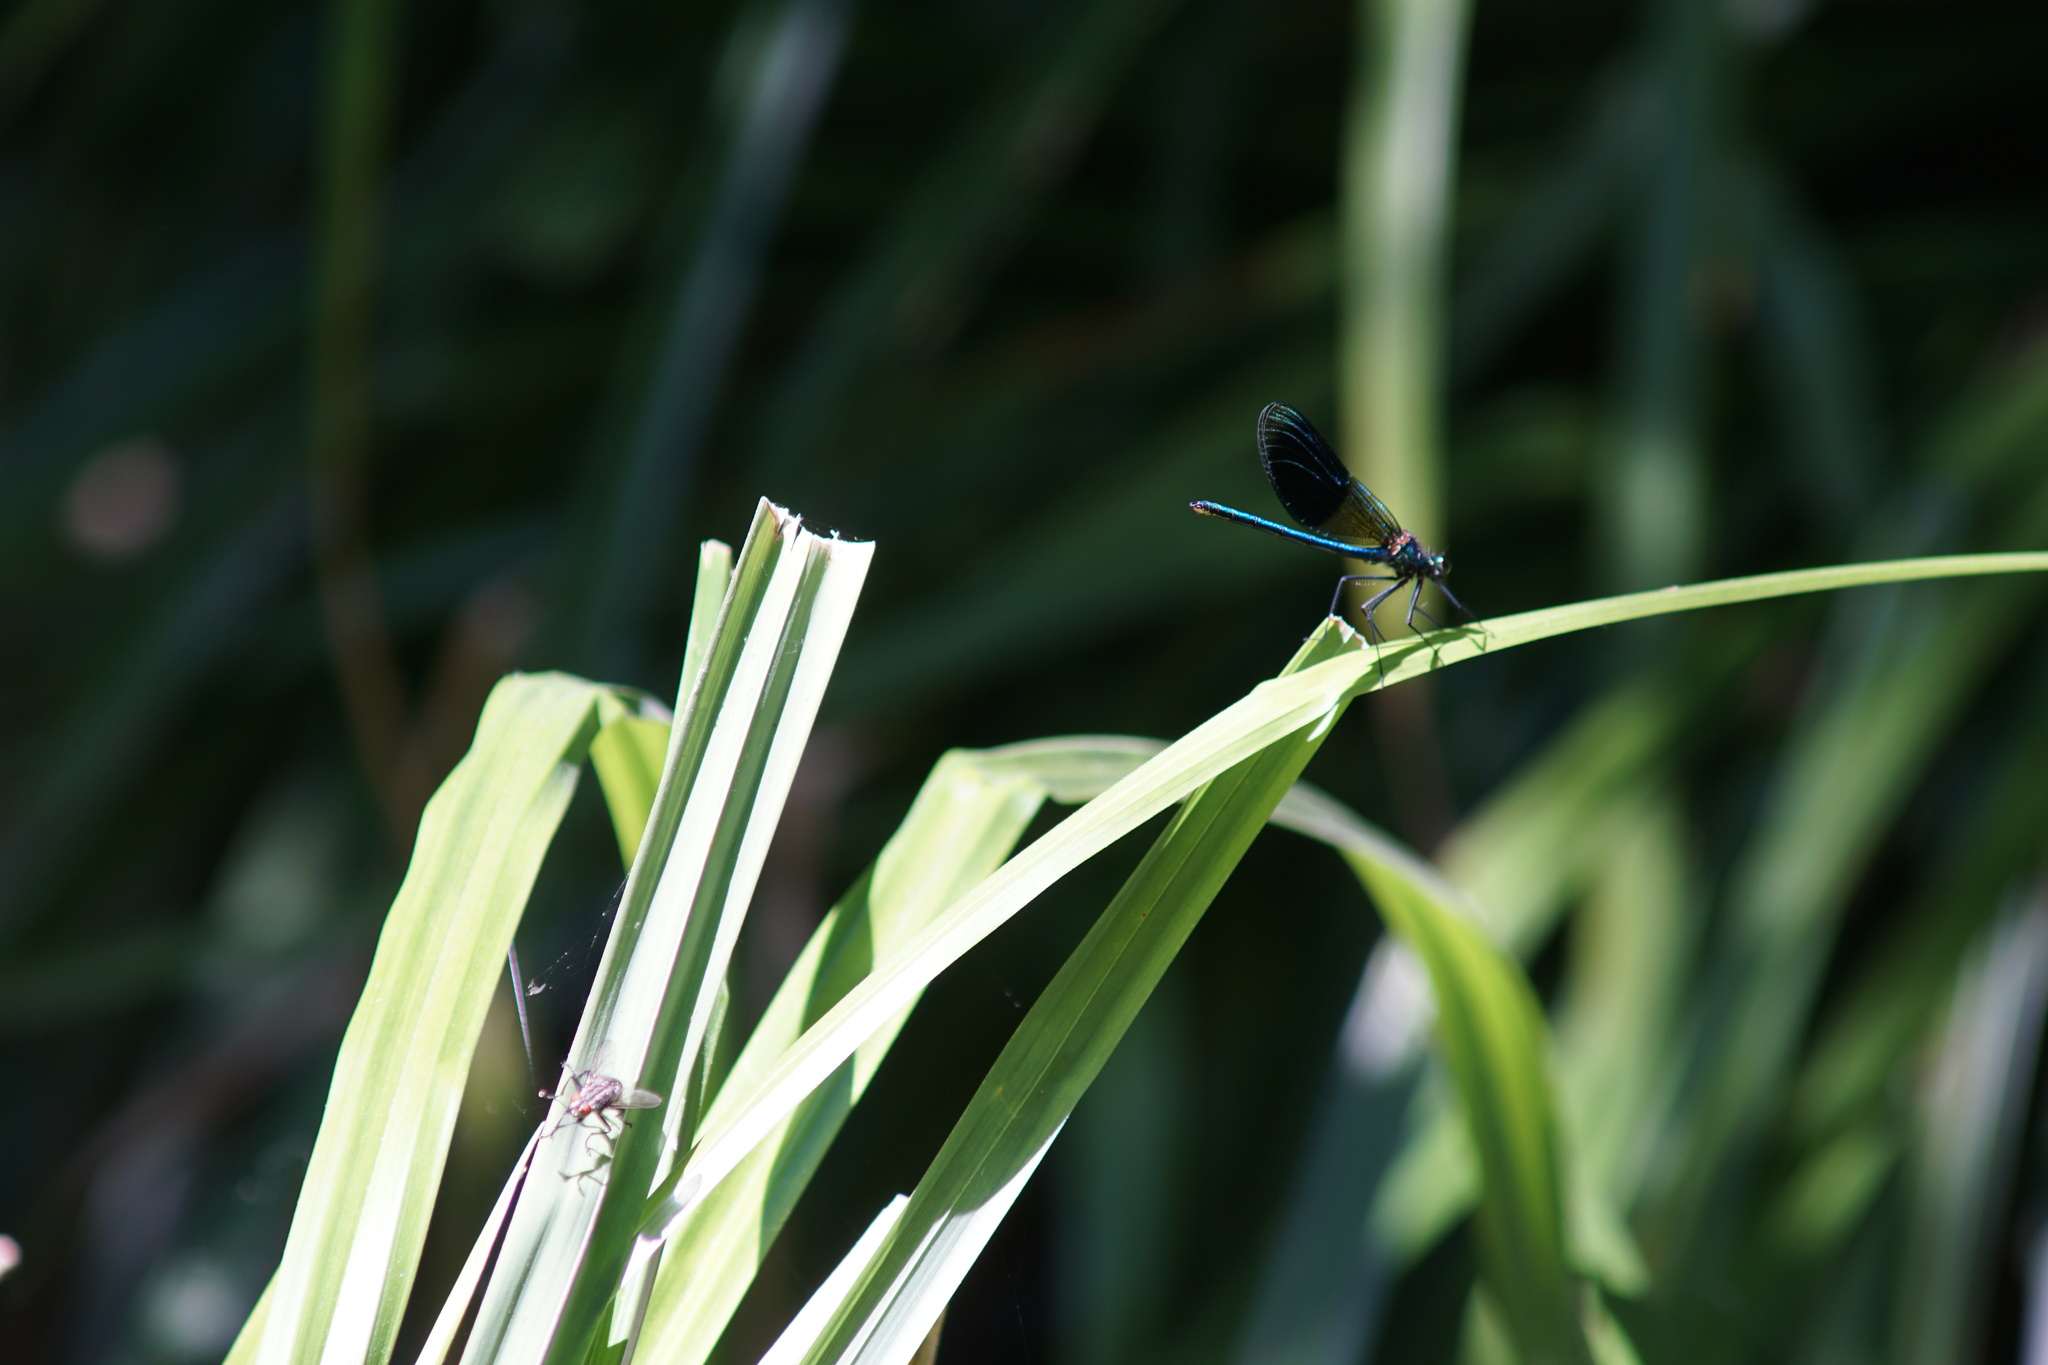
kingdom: Animalia
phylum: Arthropoda
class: Insecta
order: Odonata
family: Calopterygidae
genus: Calopteryx
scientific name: Calopteryx splendens
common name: Banded demoiselle
